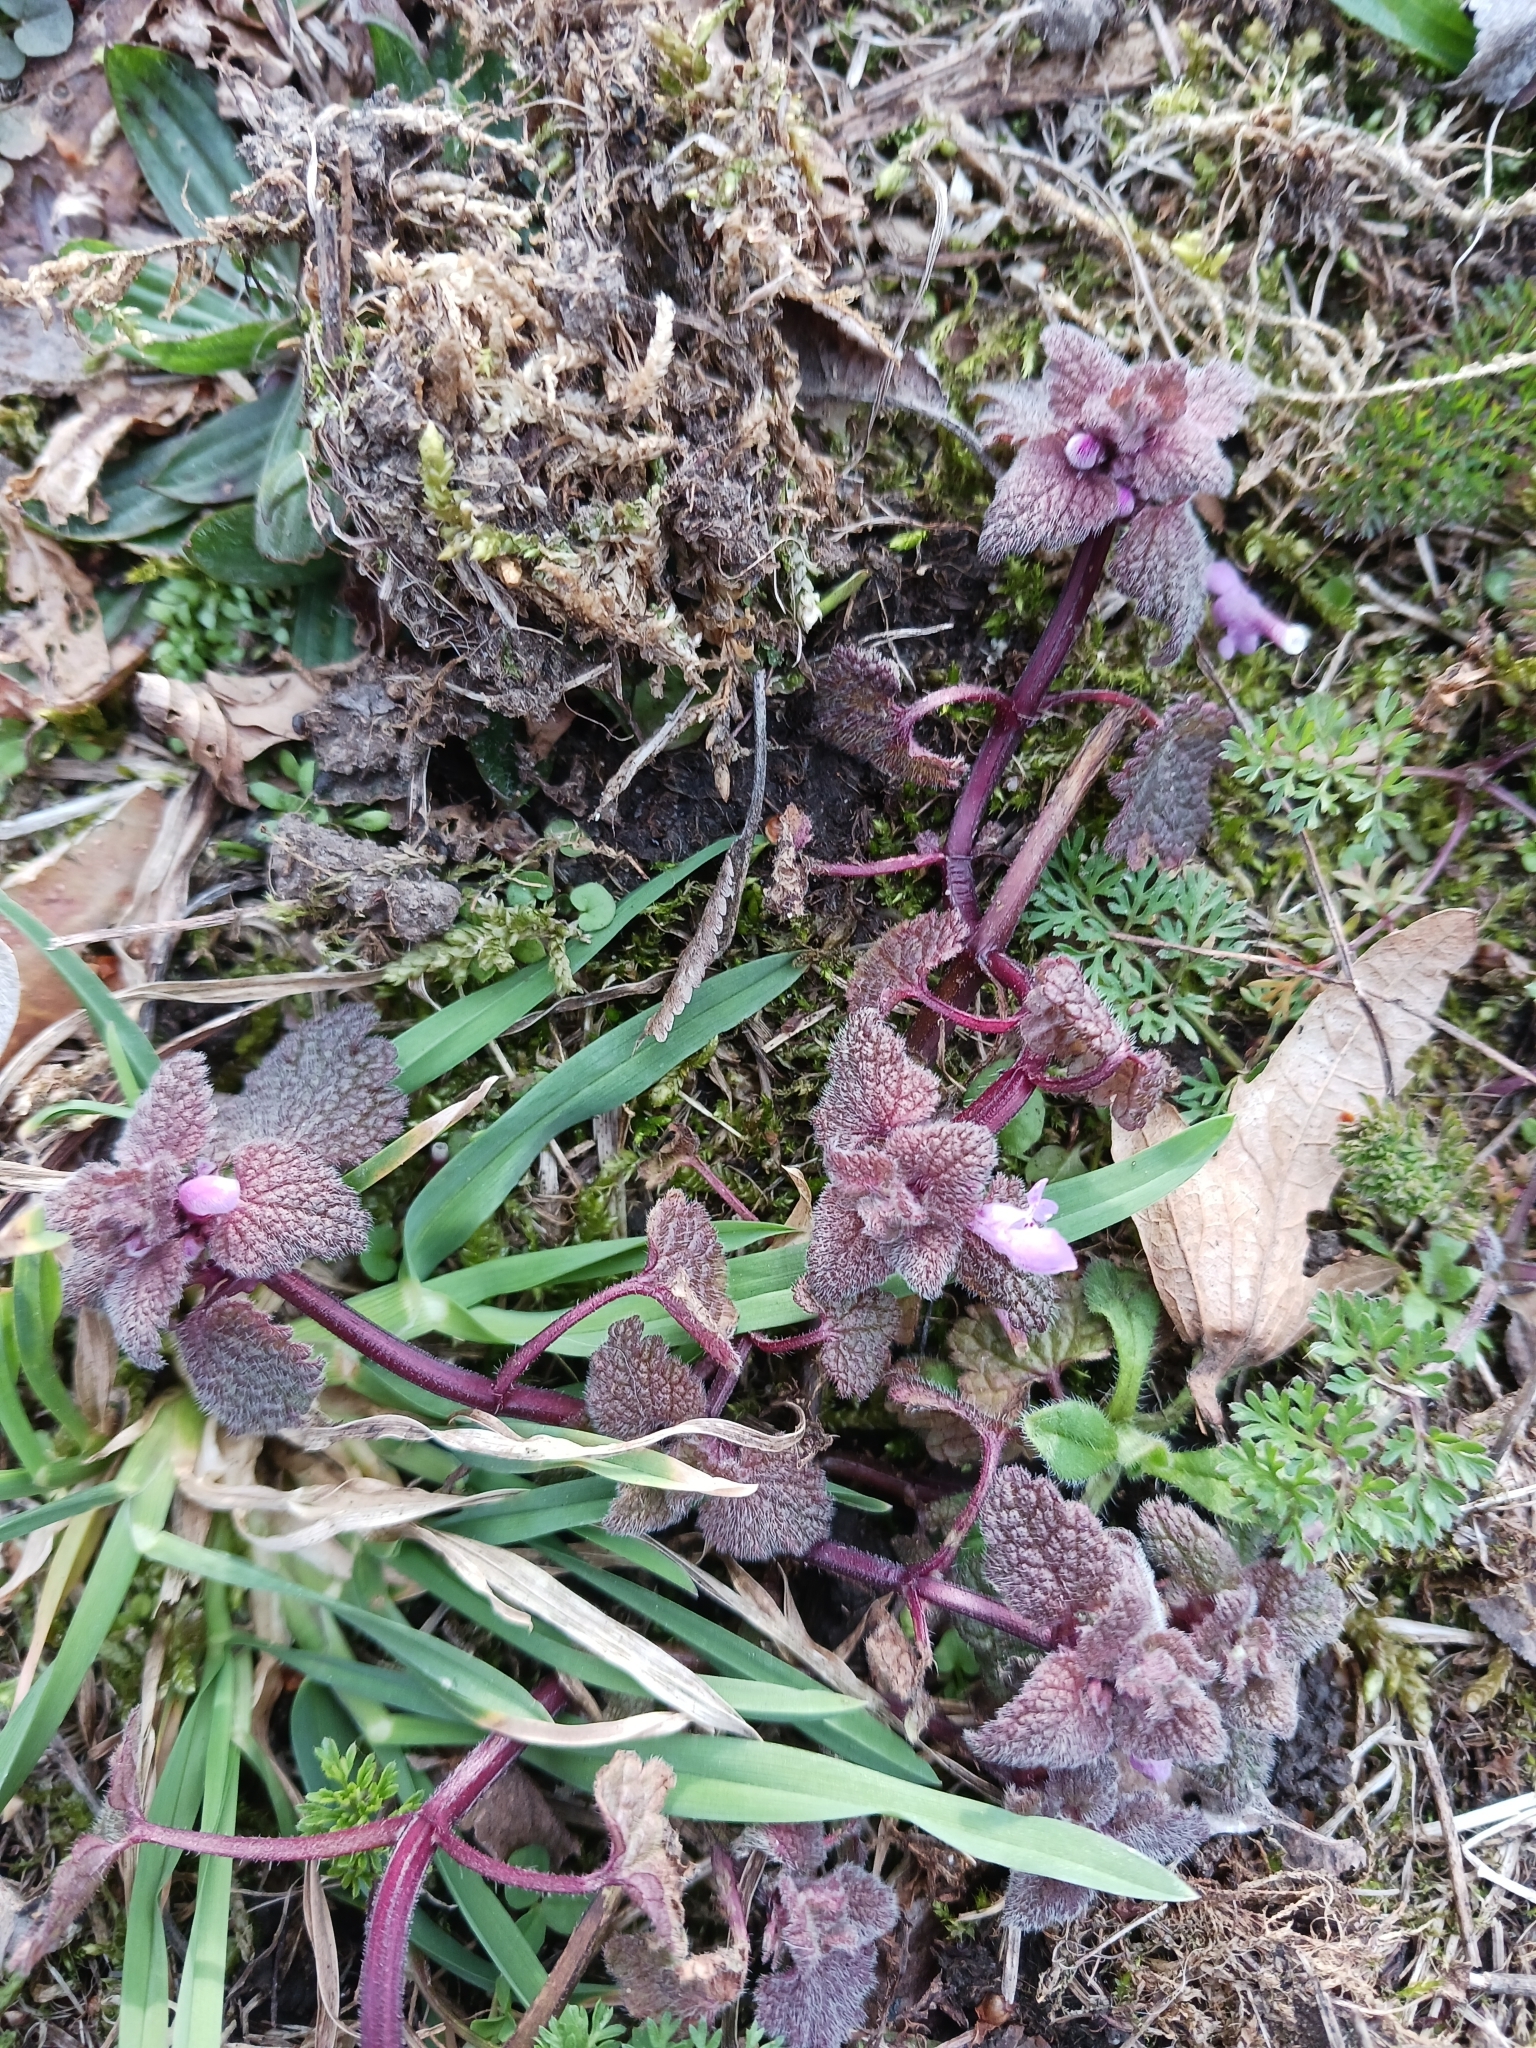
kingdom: Plantae
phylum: Tracheophyta
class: Magnoliopsida
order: Lamiales
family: Lamiaceae
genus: Lamium
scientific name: Lamium purpureum
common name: Red dead-nettle
